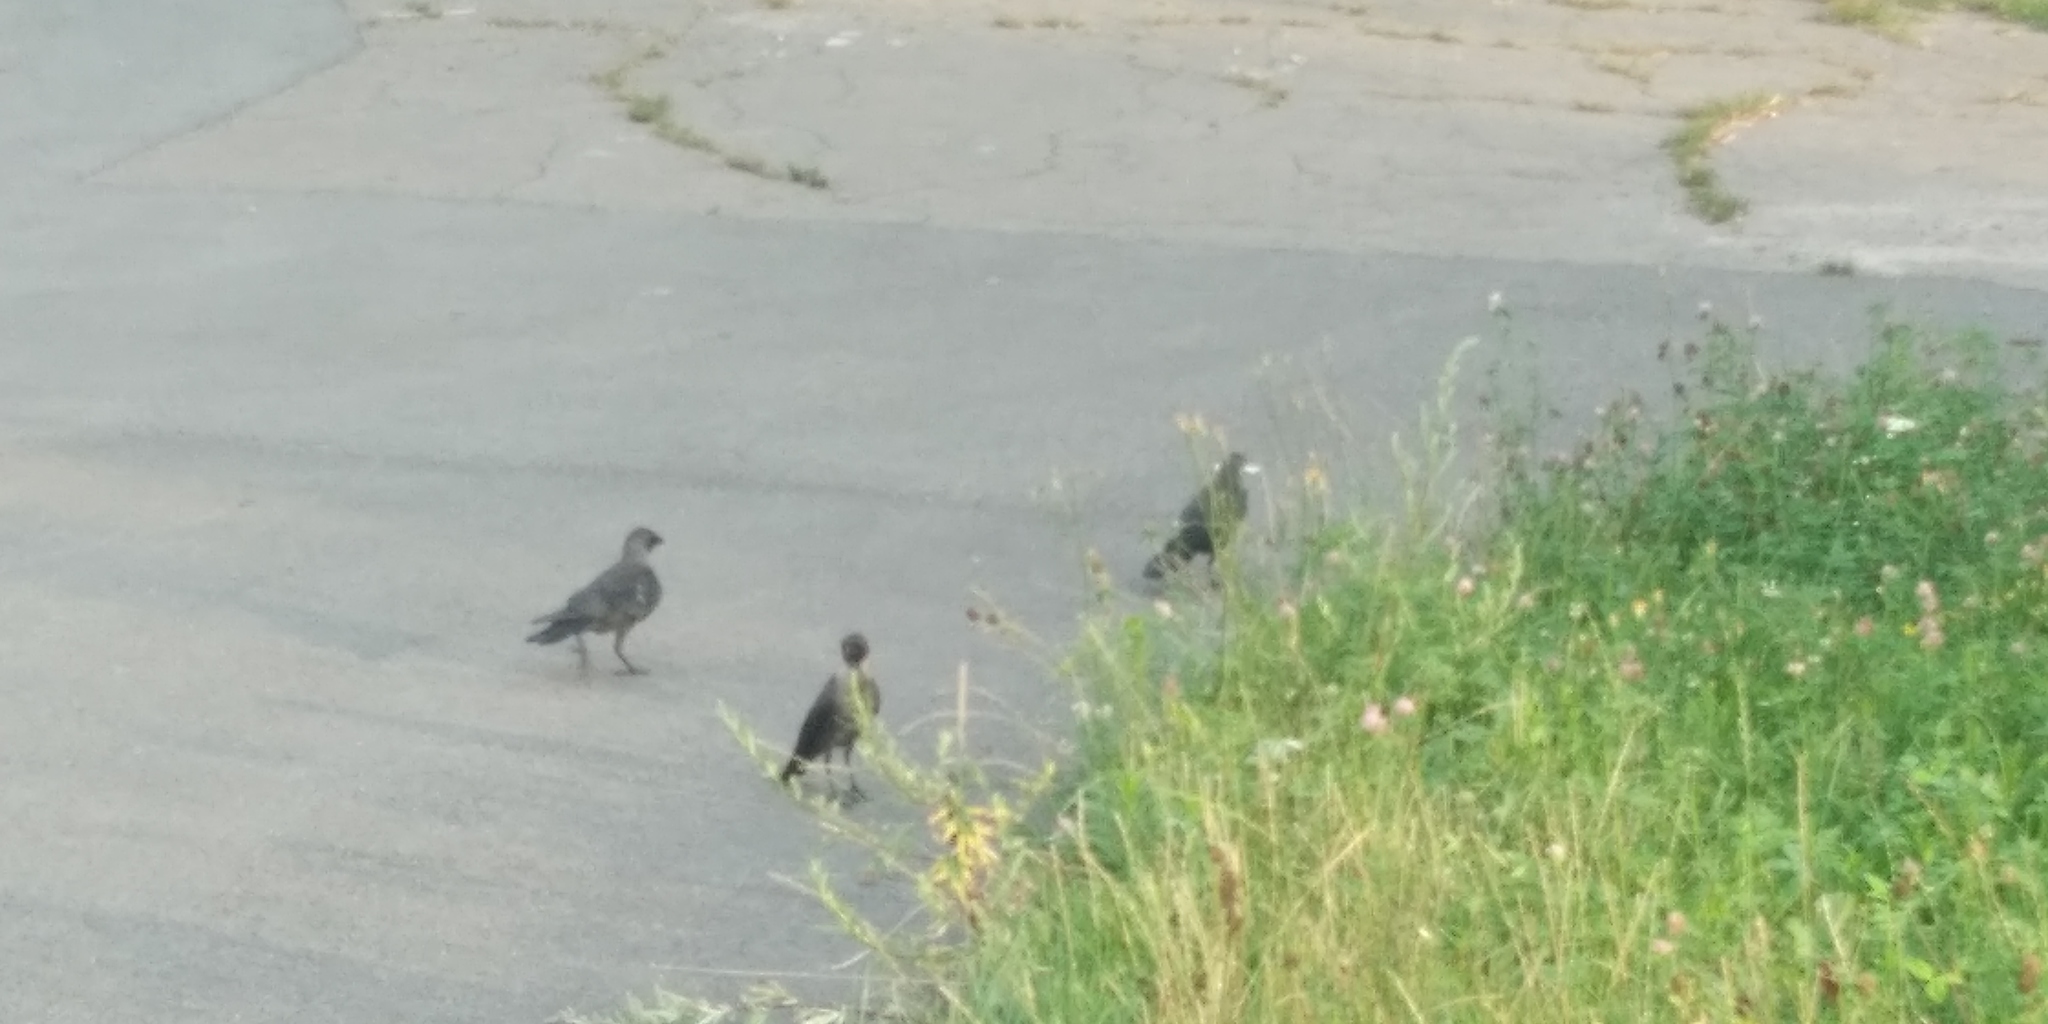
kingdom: Animalia
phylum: Chordata
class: Aves
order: Passeriformes
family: Corvidae
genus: Coloeus
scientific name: Coloeus monedula
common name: Western jackdaw
